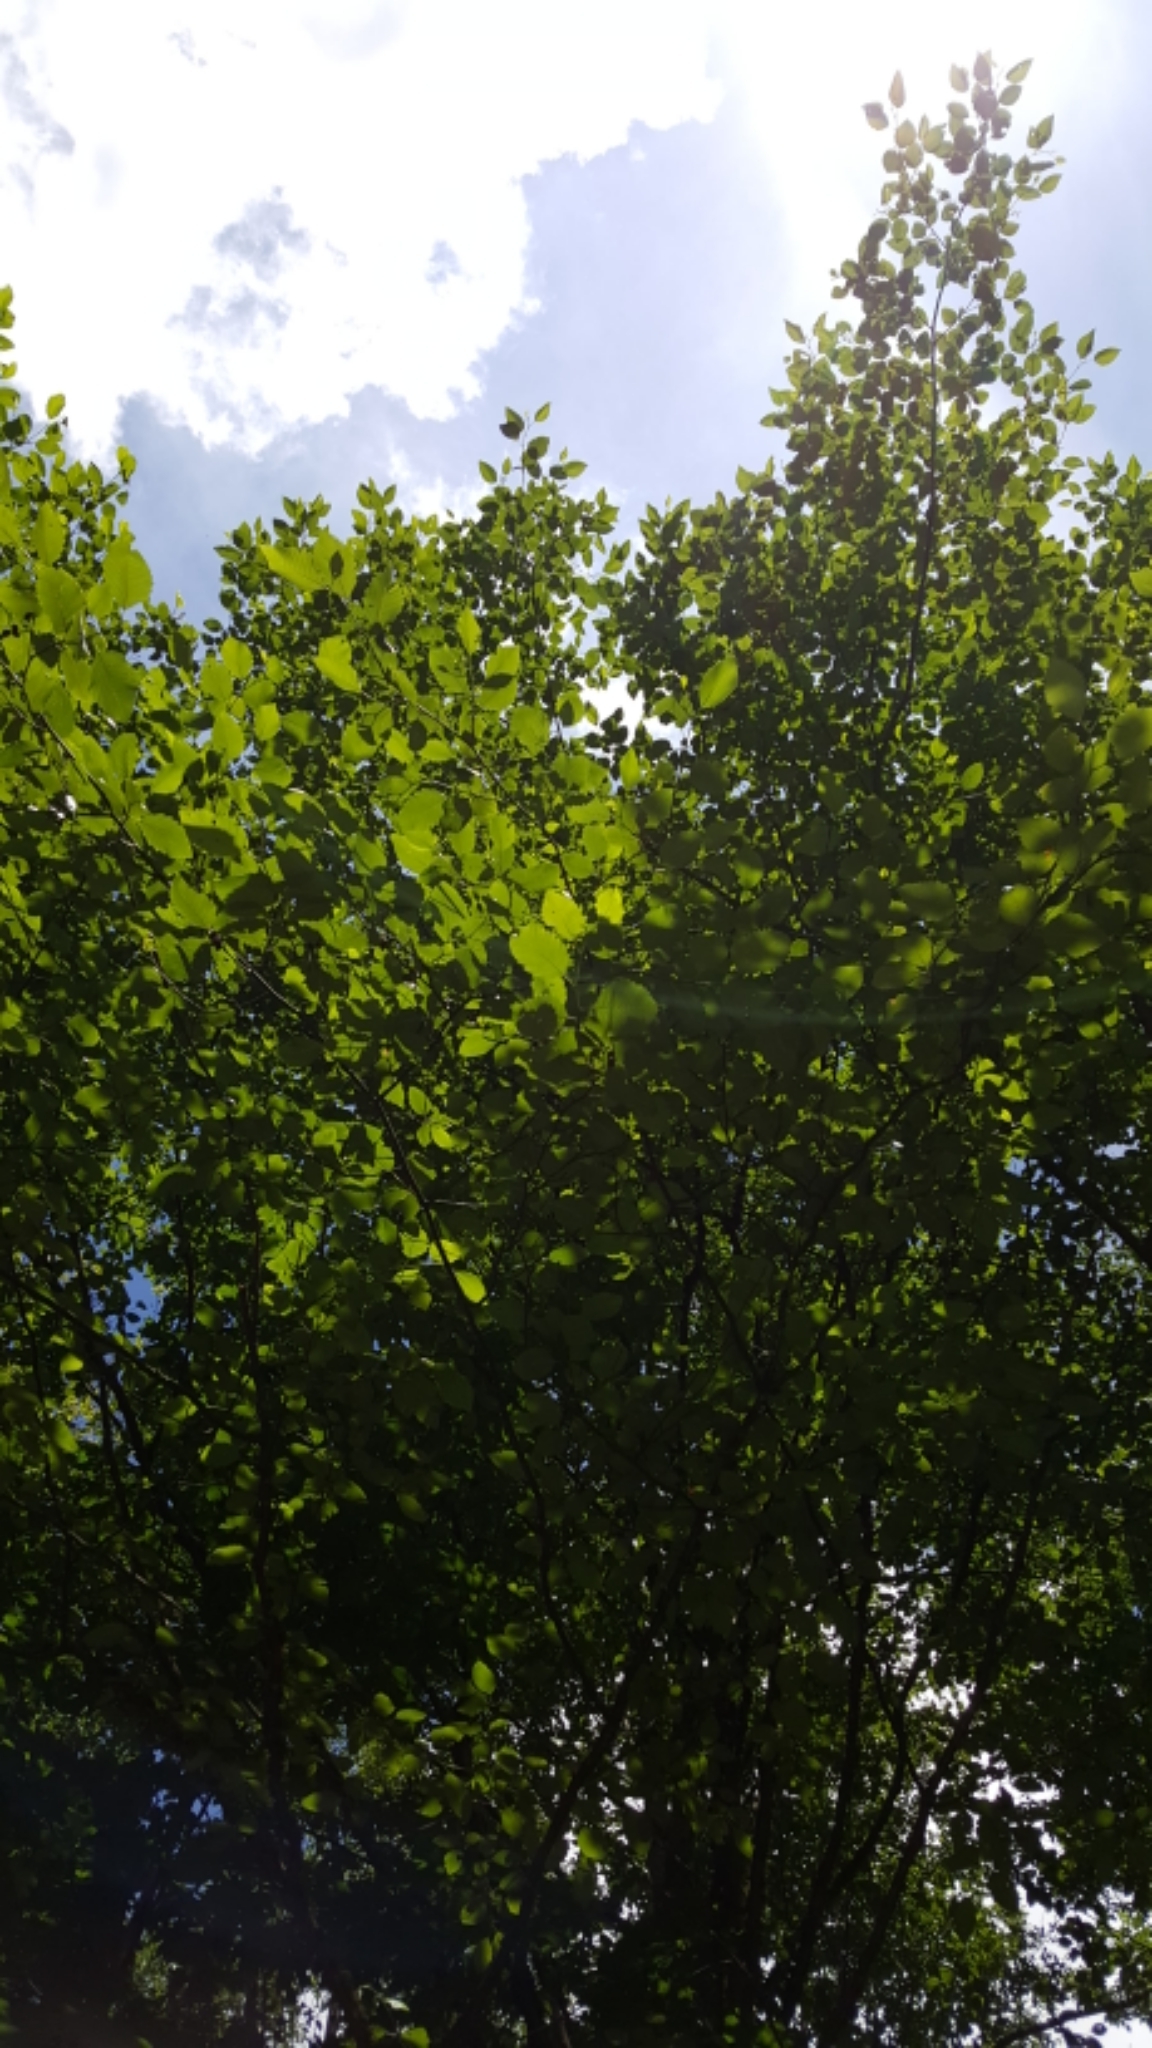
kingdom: Plantae
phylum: Tracheophyta
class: Magnoliopsida
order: Fagales
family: Betulaceae
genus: Alnus
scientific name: Alnus rubra
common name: Red alder
